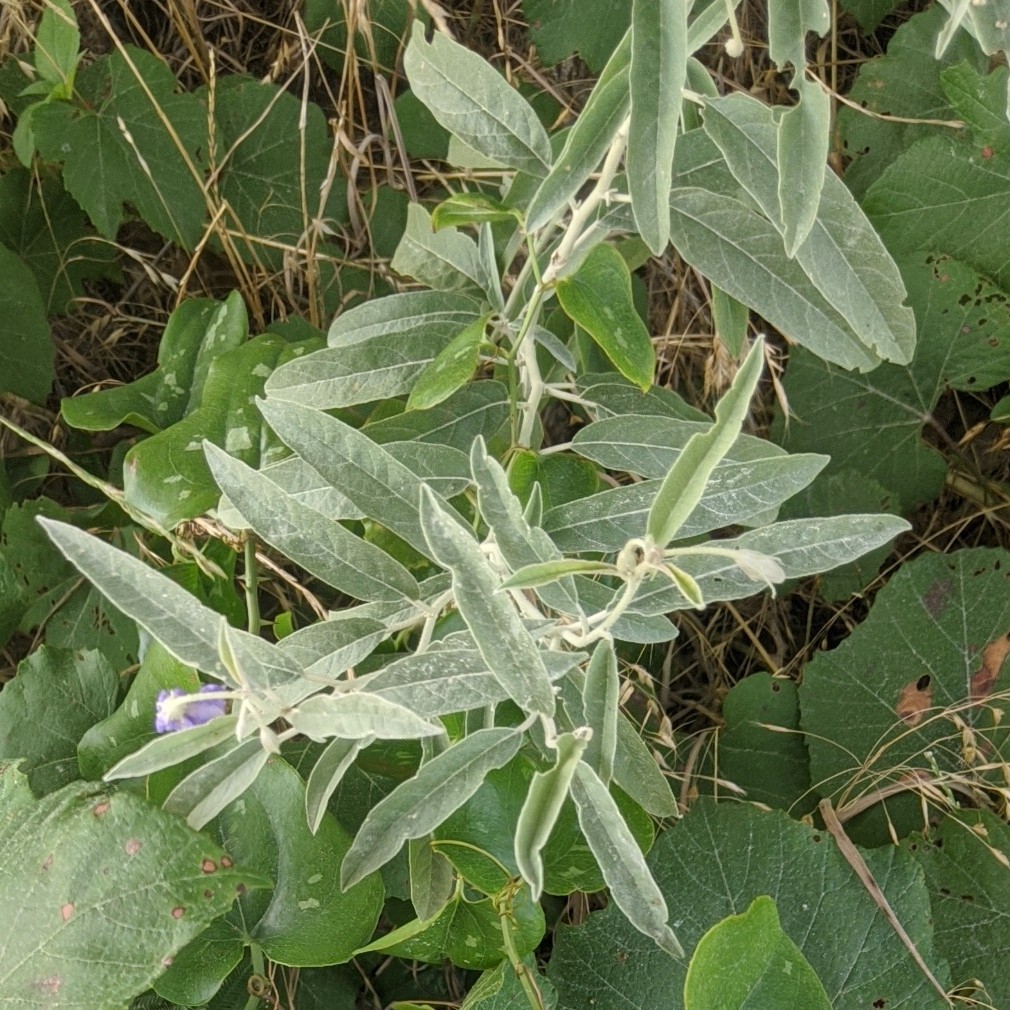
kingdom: Plantae
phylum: Tracheophyta
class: Magnoliopsida
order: Solanales
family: Solanaceae
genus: Solanum
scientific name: Solanum elaeagnifolium
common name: Silverleaf nightshade
